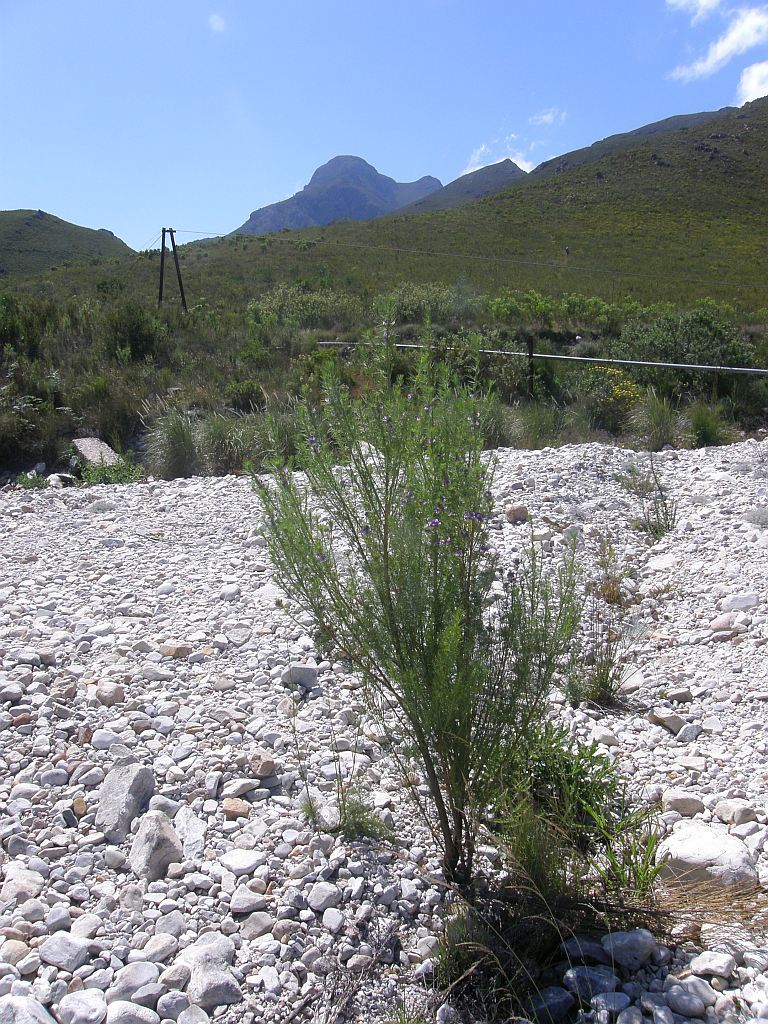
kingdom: Plantae
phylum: Tracheophyta
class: Magnoliopsida
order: Fabales
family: Fabaceae
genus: Psoralea
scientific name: Psoralea ivumba
